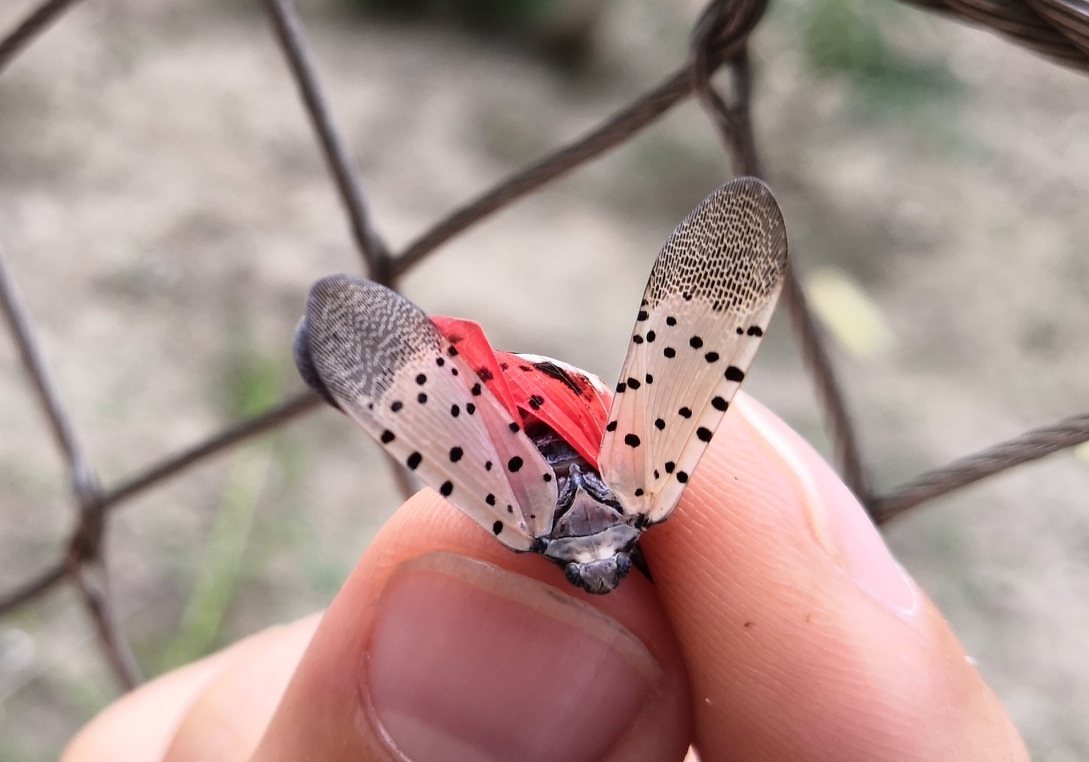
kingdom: Animalia
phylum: Arthropoda
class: Insecta
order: Hemiptera
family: Fulgoridae
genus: Lycorma
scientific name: Lycorma delicatula
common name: Spotted lanternfly
